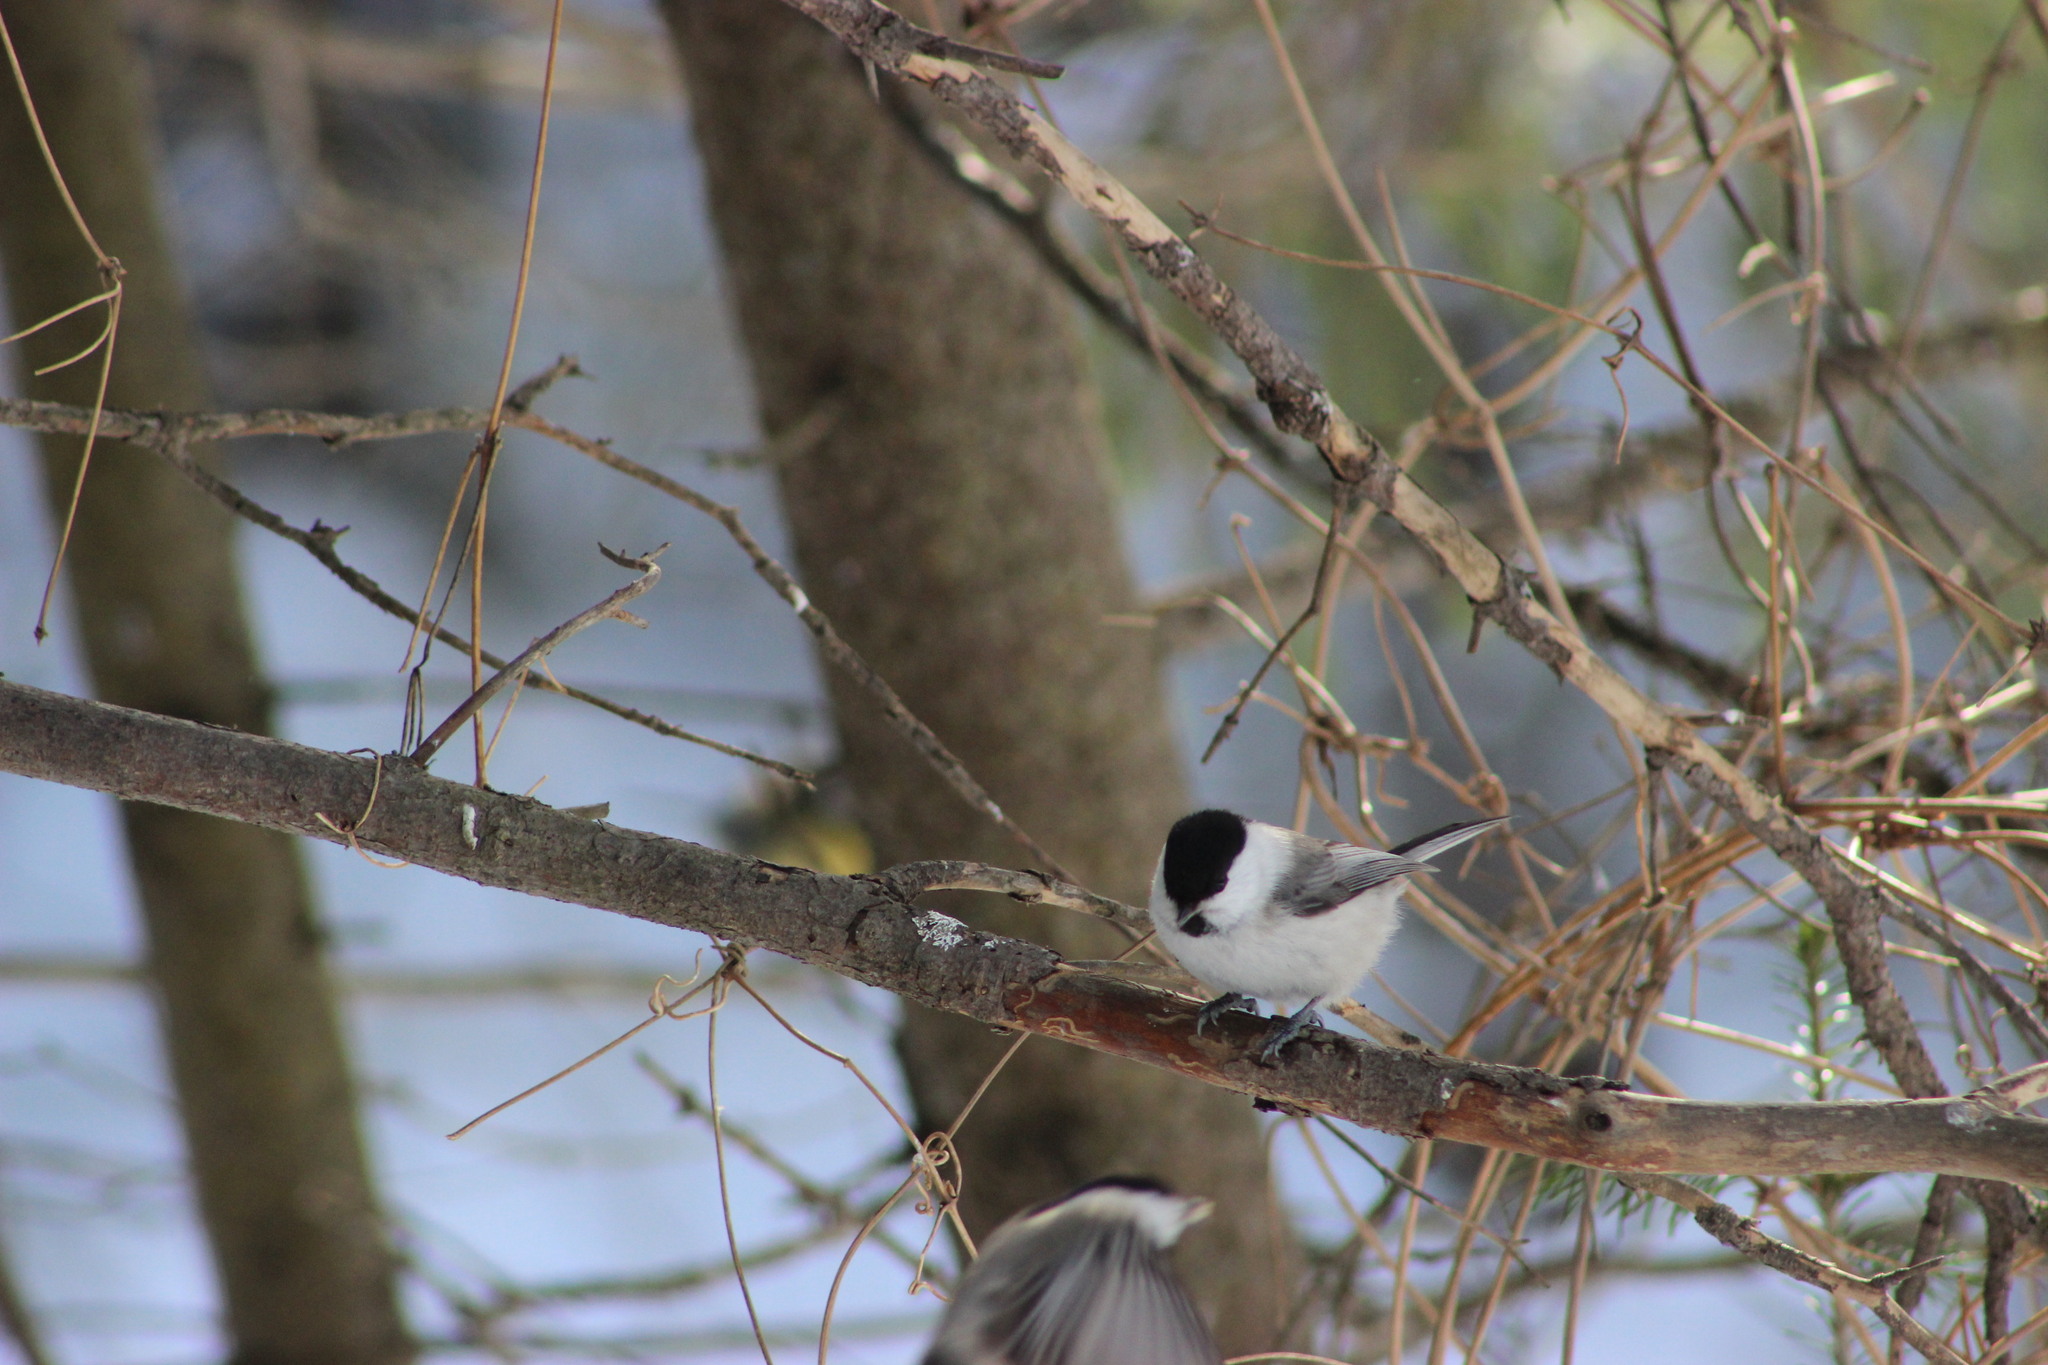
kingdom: Animalia
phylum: Chordata
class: Aves
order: Passeriformes
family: Paridae
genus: Poecile
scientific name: Poecile montanus
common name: Willow tit
